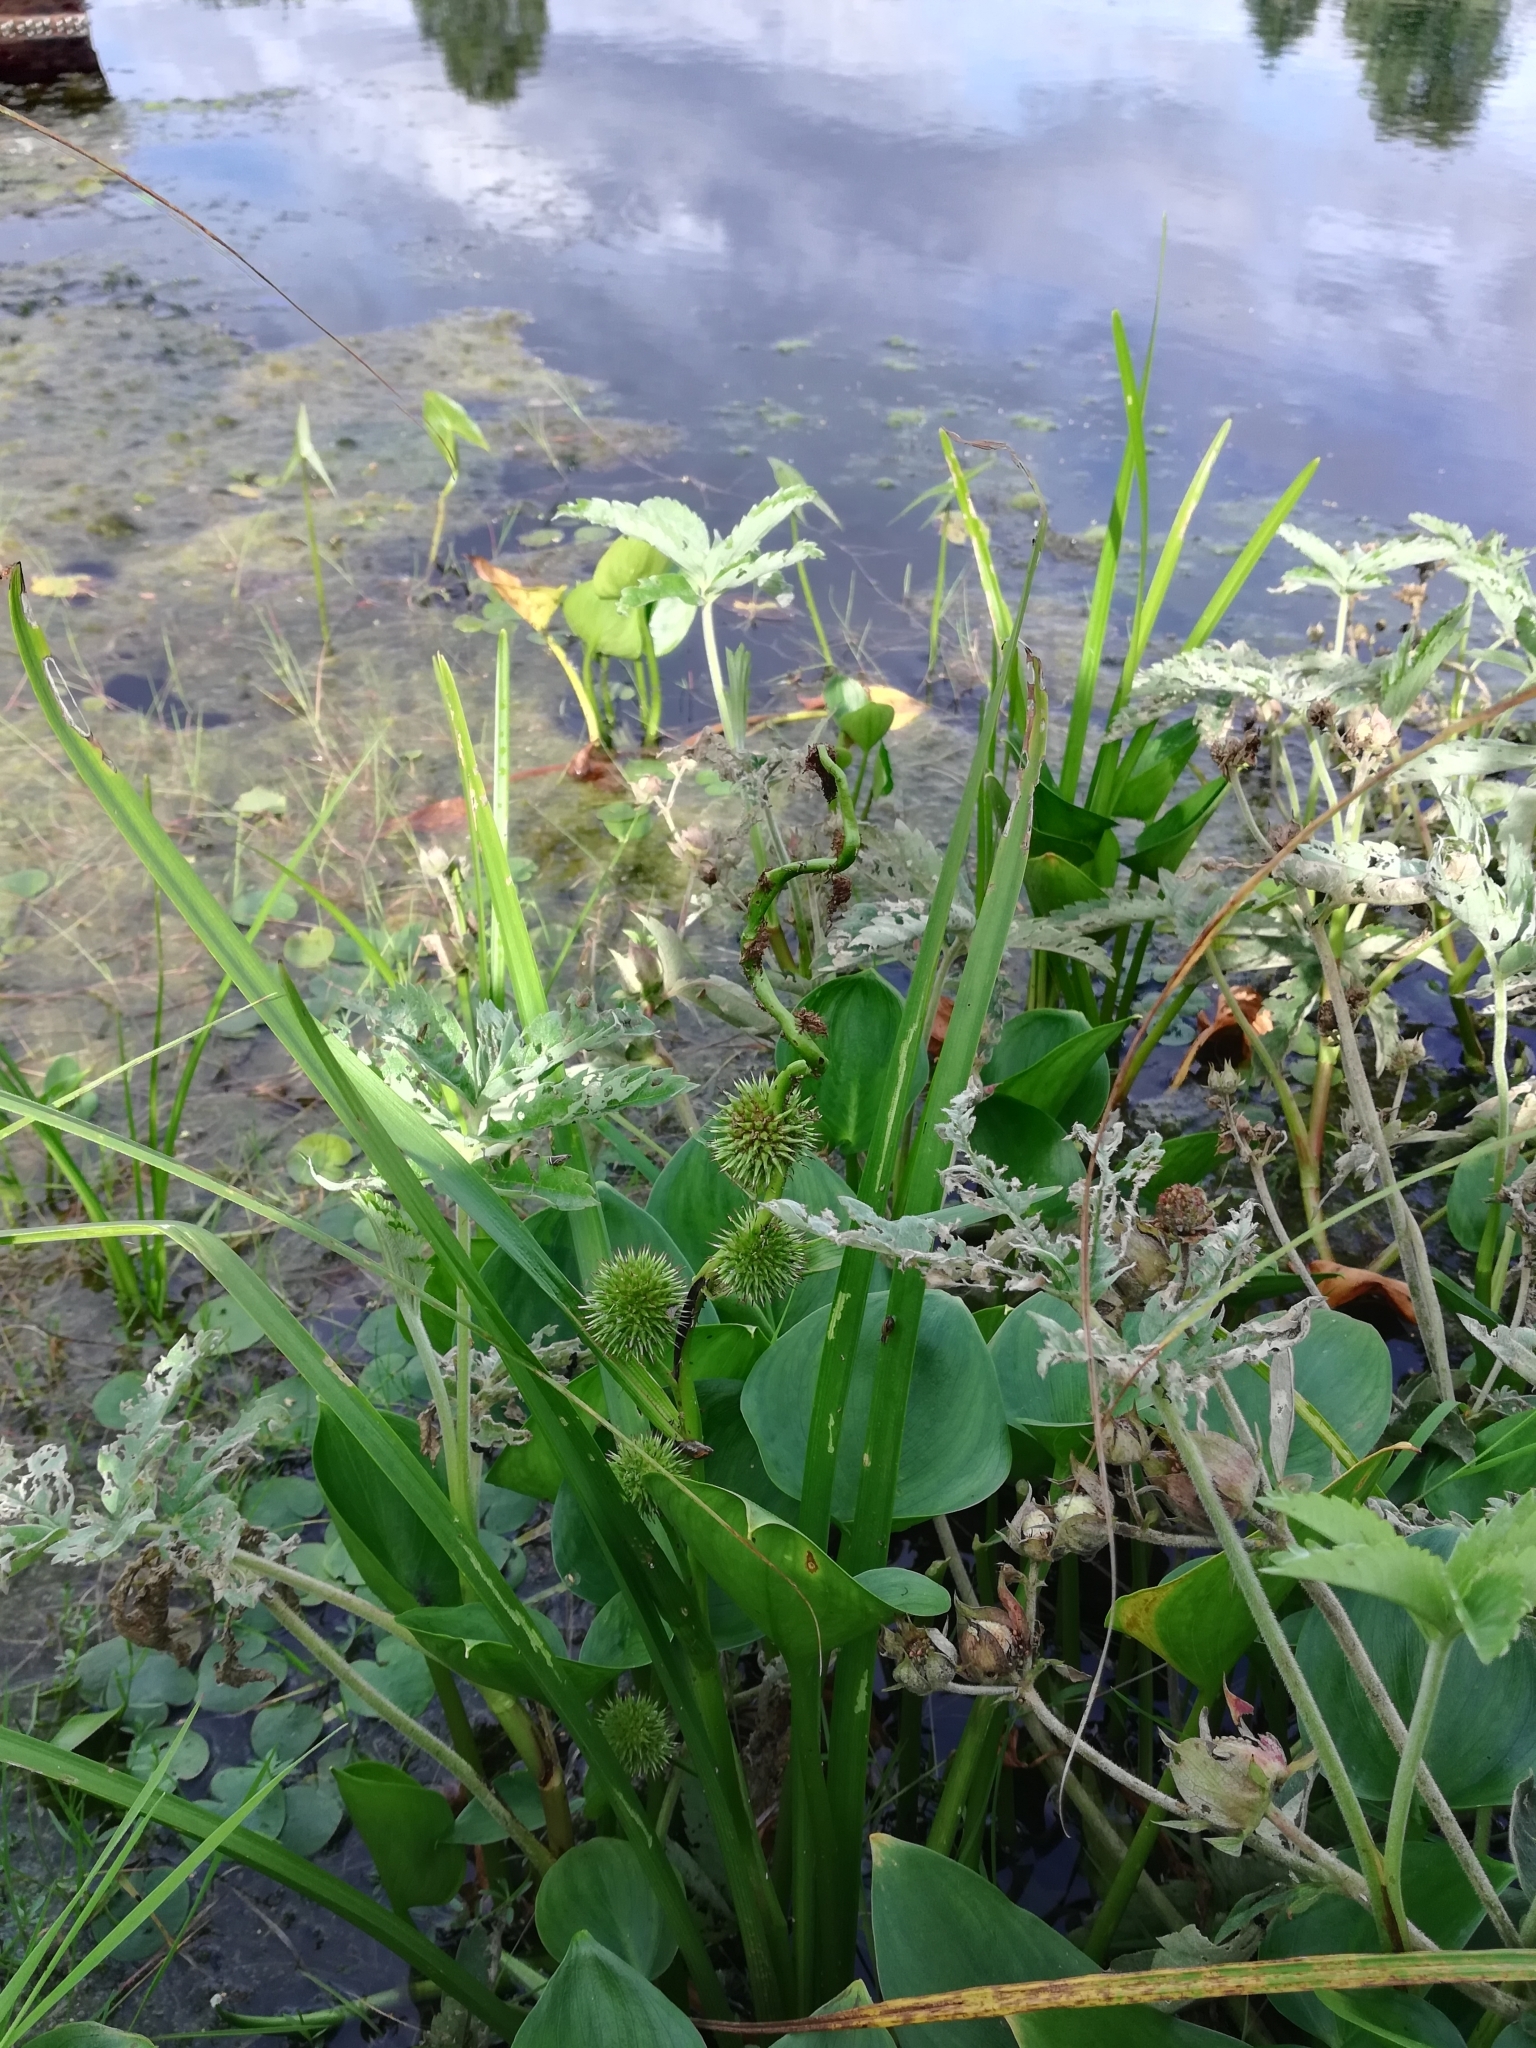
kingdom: Plantae
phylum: Tracheophyta
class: Liliopsida
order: Poales
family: Typhaceae
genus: Sparganium
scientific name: Sparganium emersum
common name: Unbranched bur-reed
